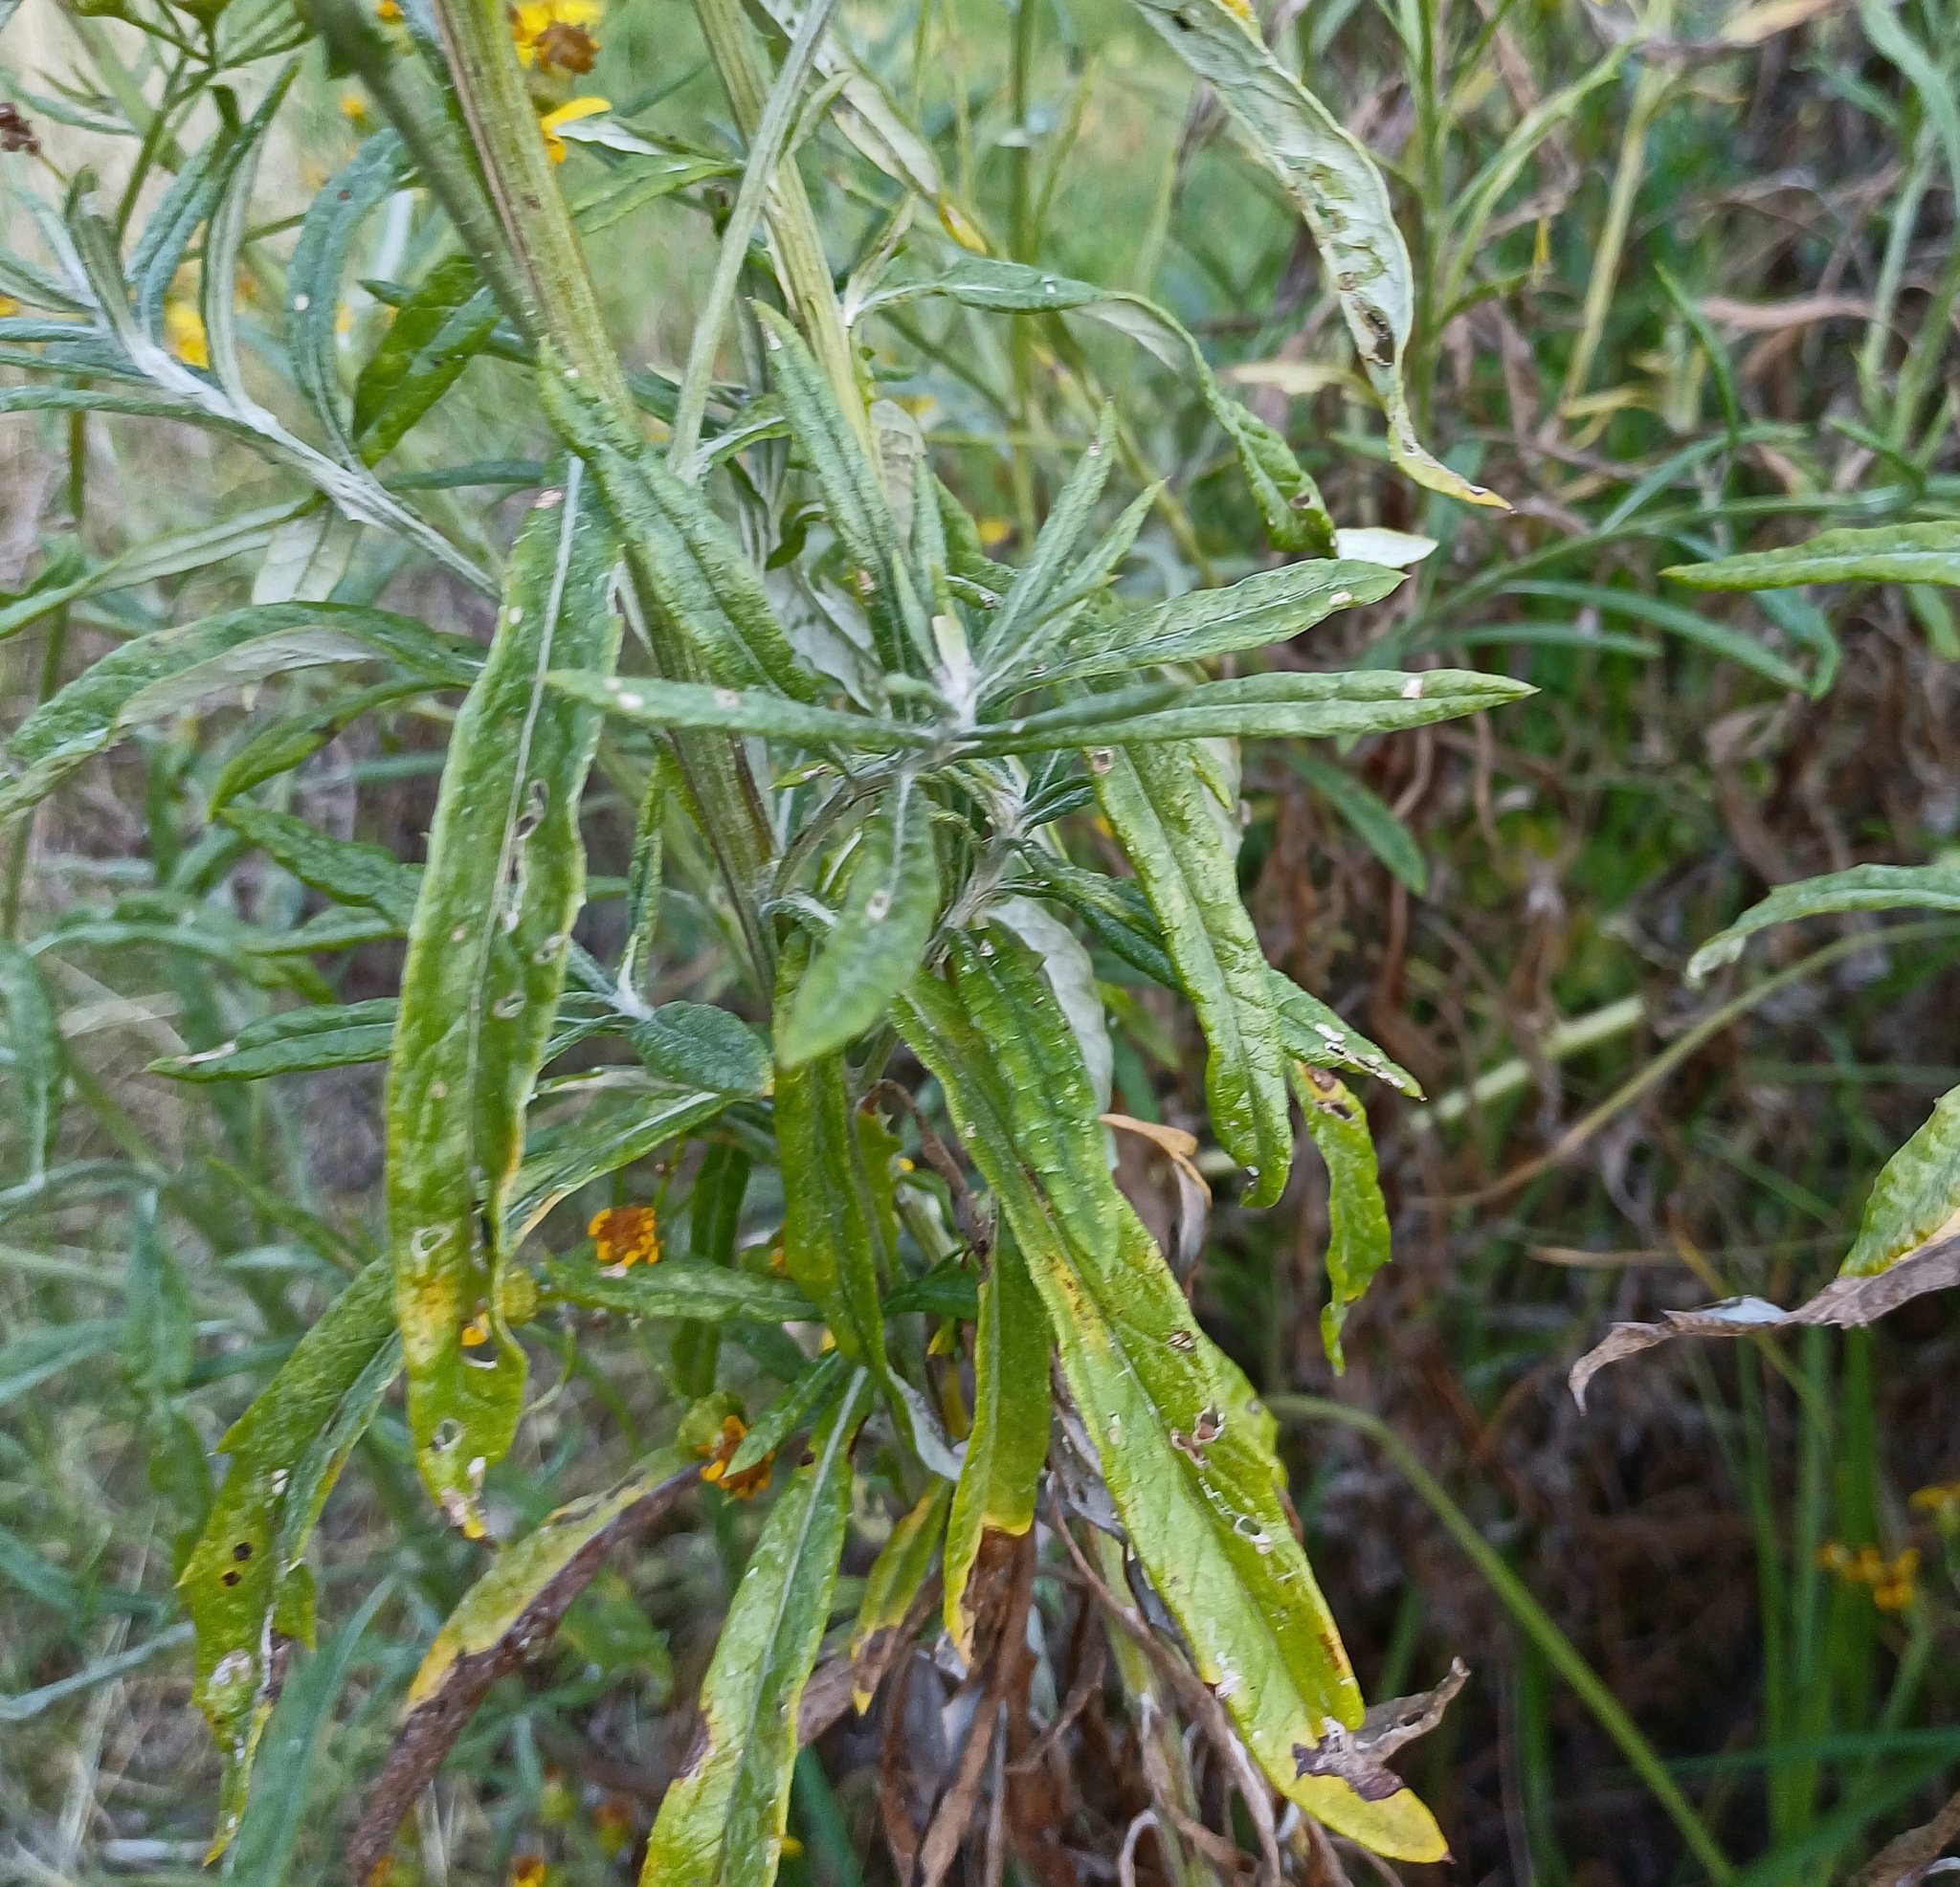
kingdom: Plantae
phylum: Tracheophyta
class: Magnoliopsida
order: Asterales
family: Asteraceae
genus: Senecio
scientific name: Senecio pterophorus
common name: Shoddy ragwort
